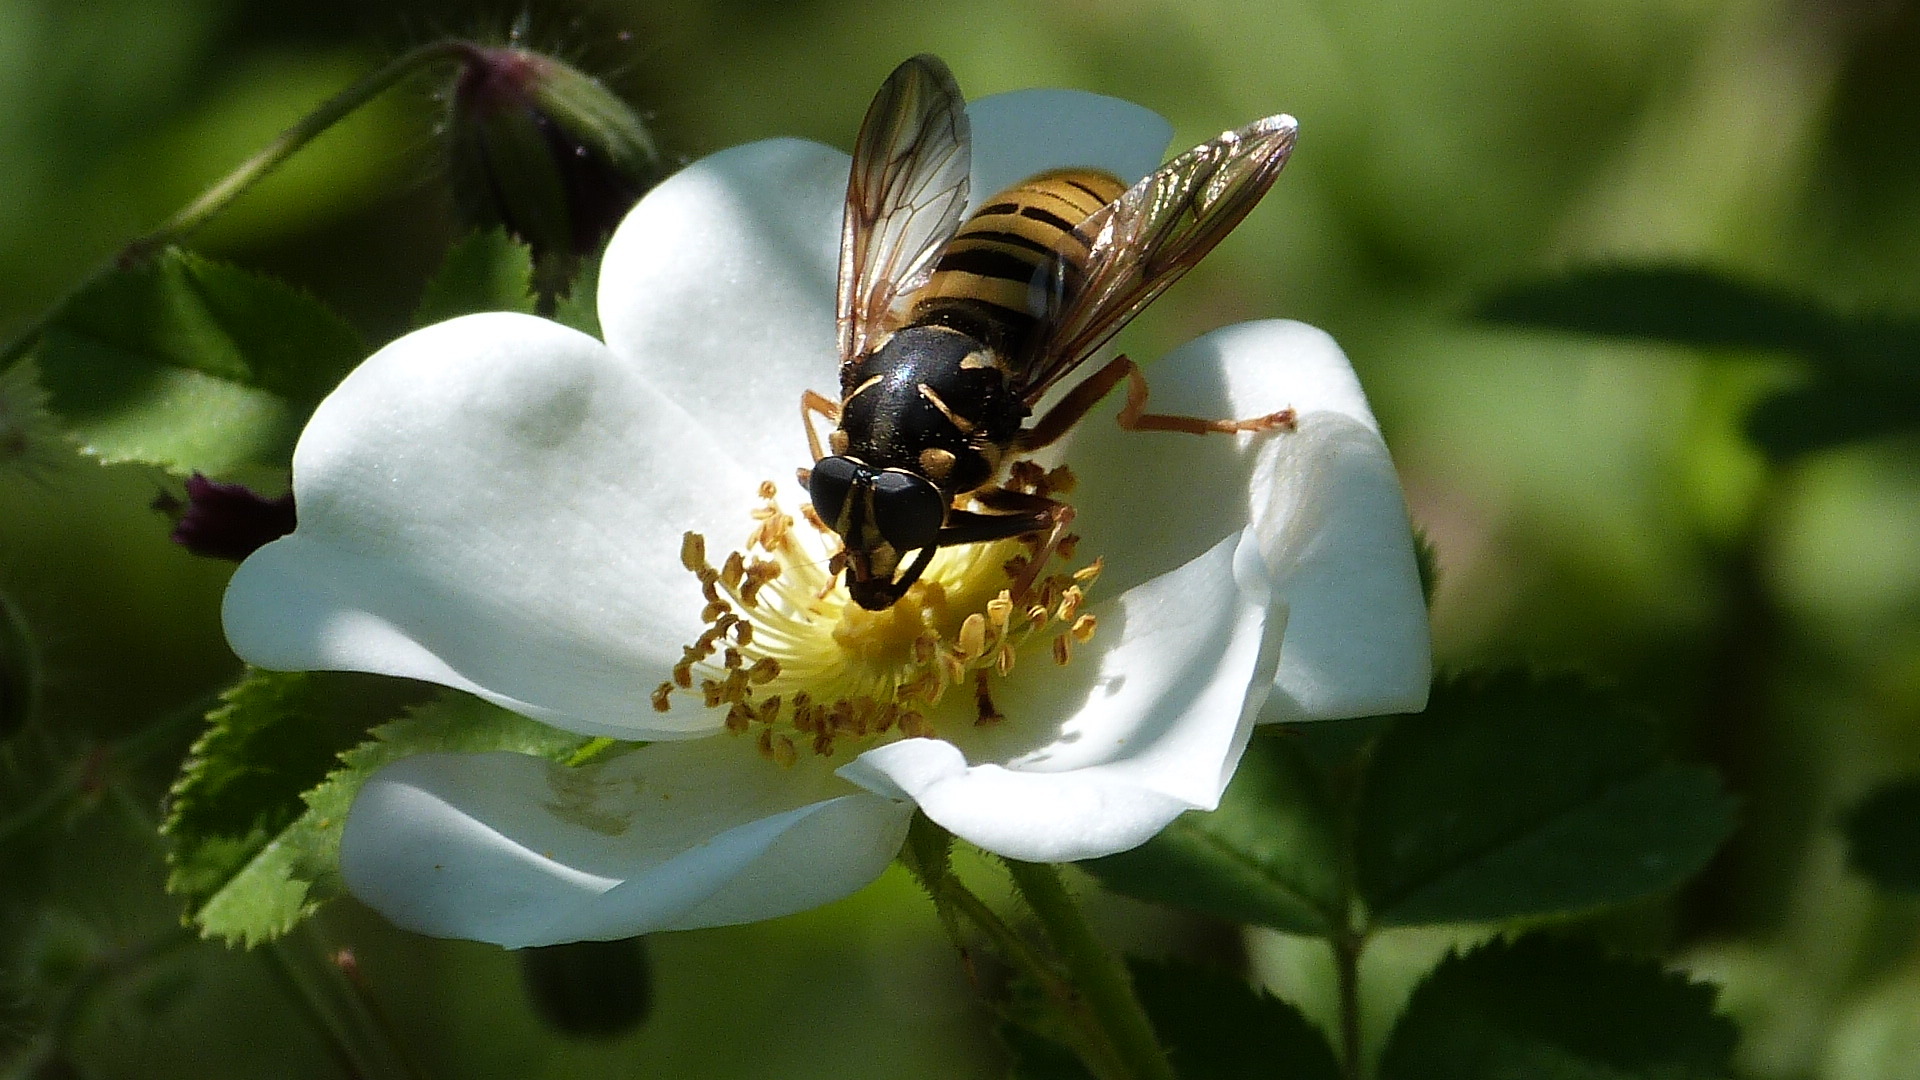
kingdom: Animalia
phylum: Arthropoda
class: Insecta
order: Diptera
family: Syrphidae
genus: Temnostoma
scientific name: Temnostoma vespiforme
